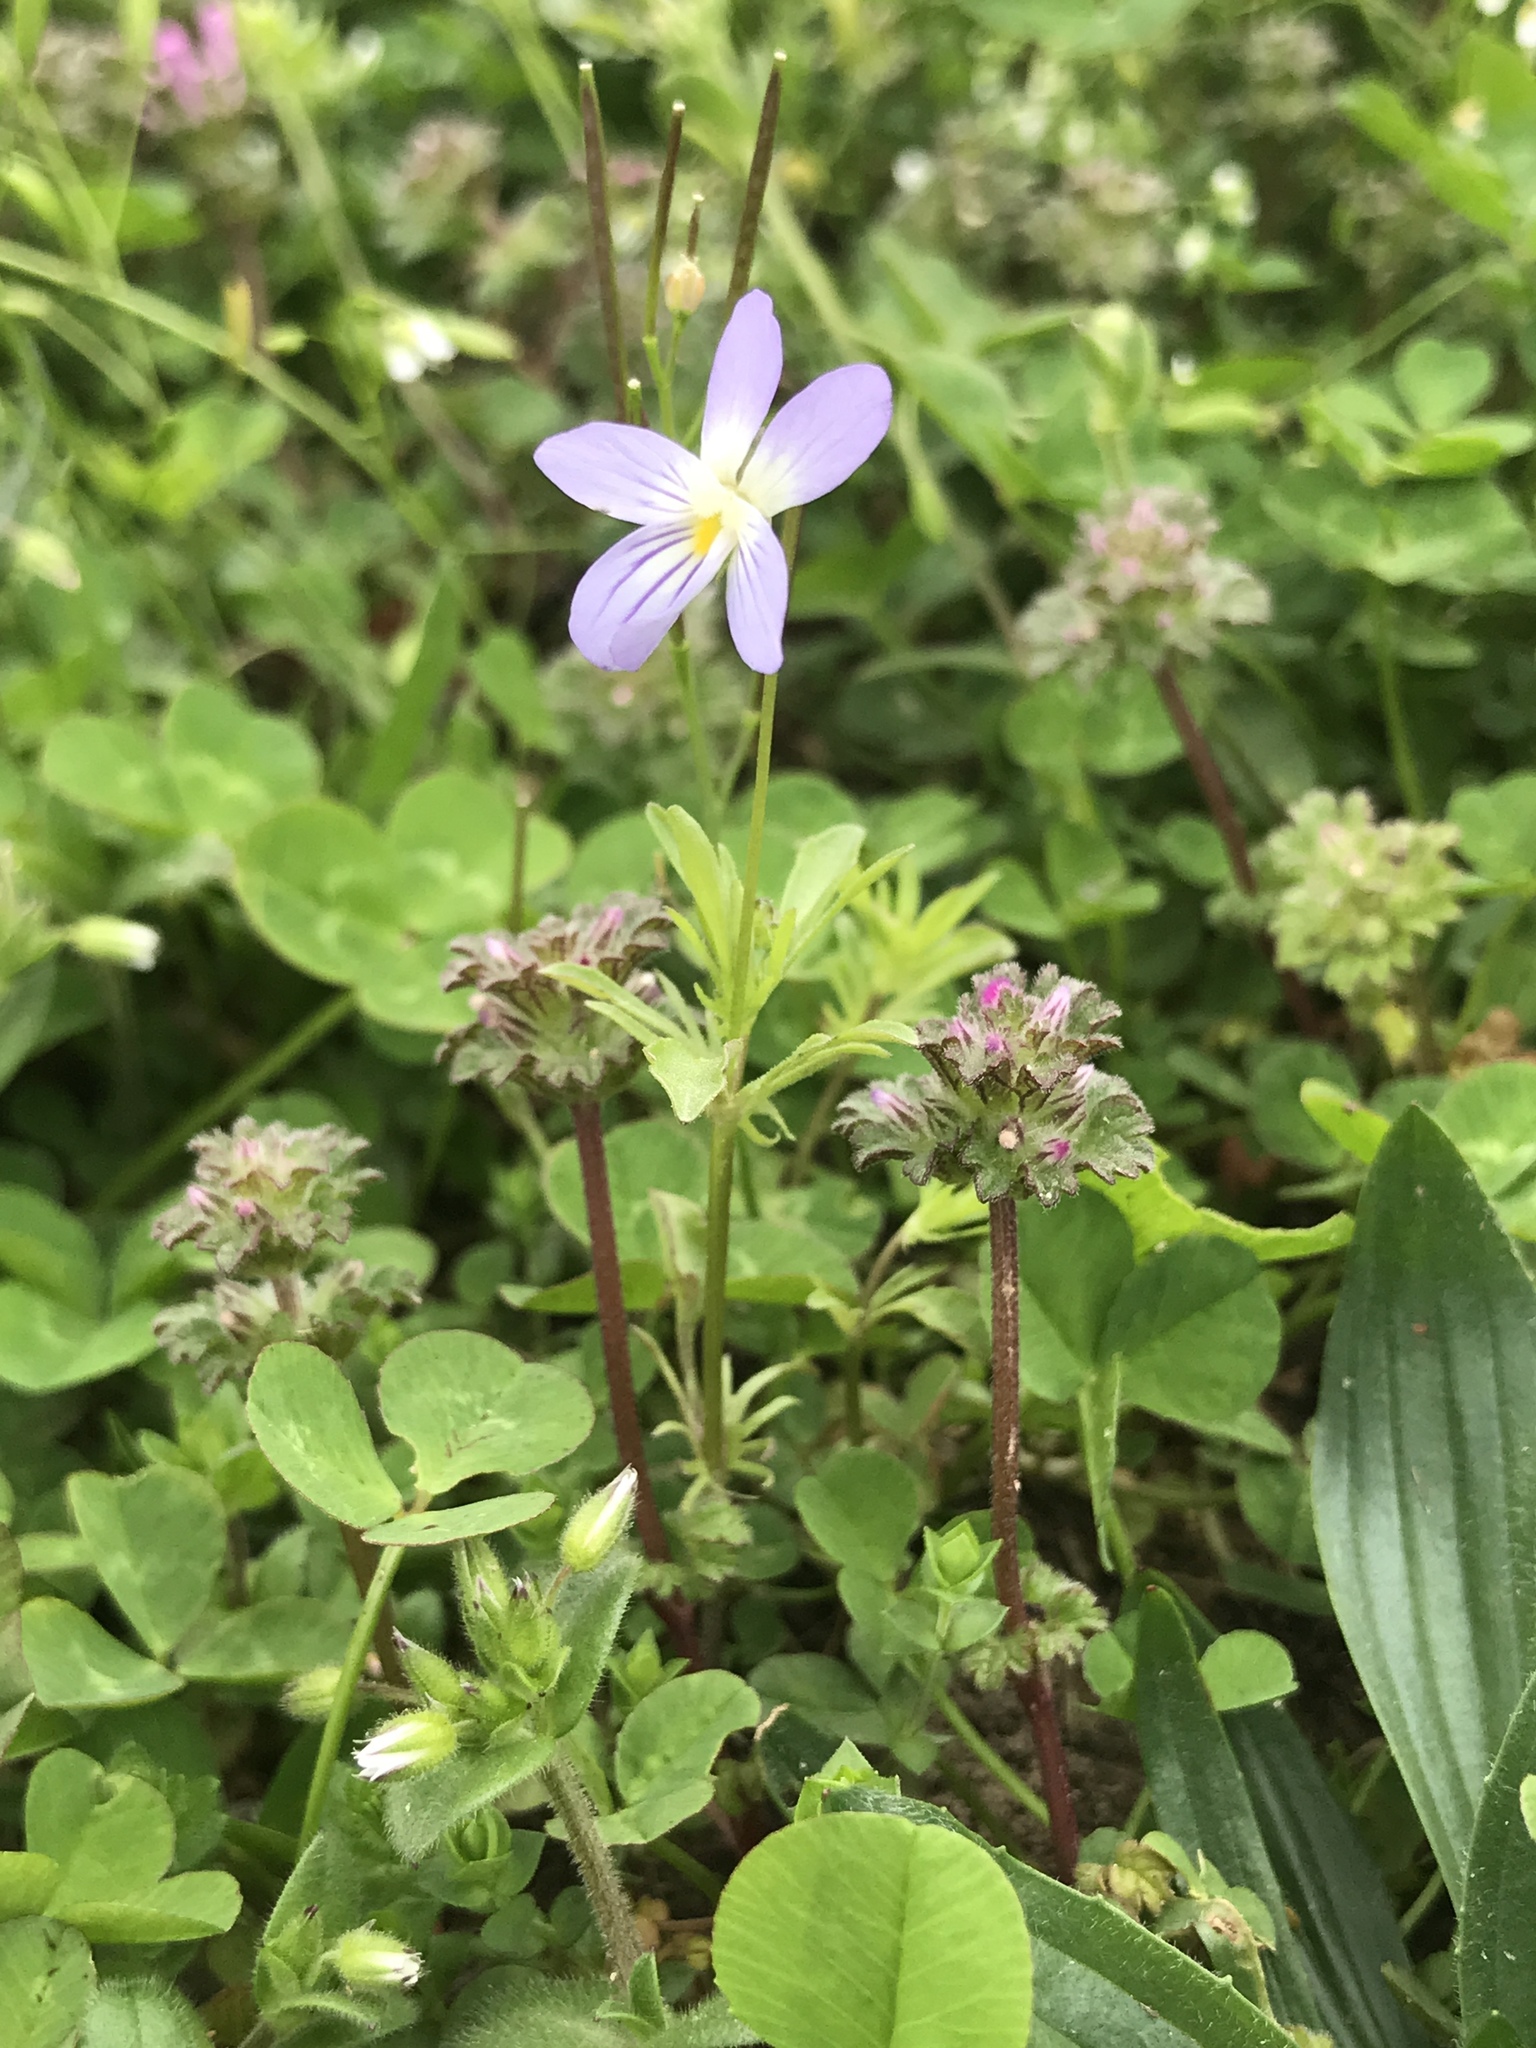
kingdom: Plantae
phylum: Tracheophyta
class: Magnoliopsida
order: Malpighiales
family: Violaceae
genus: Viola
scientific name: Viola rafinesquei
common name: American field pansy
